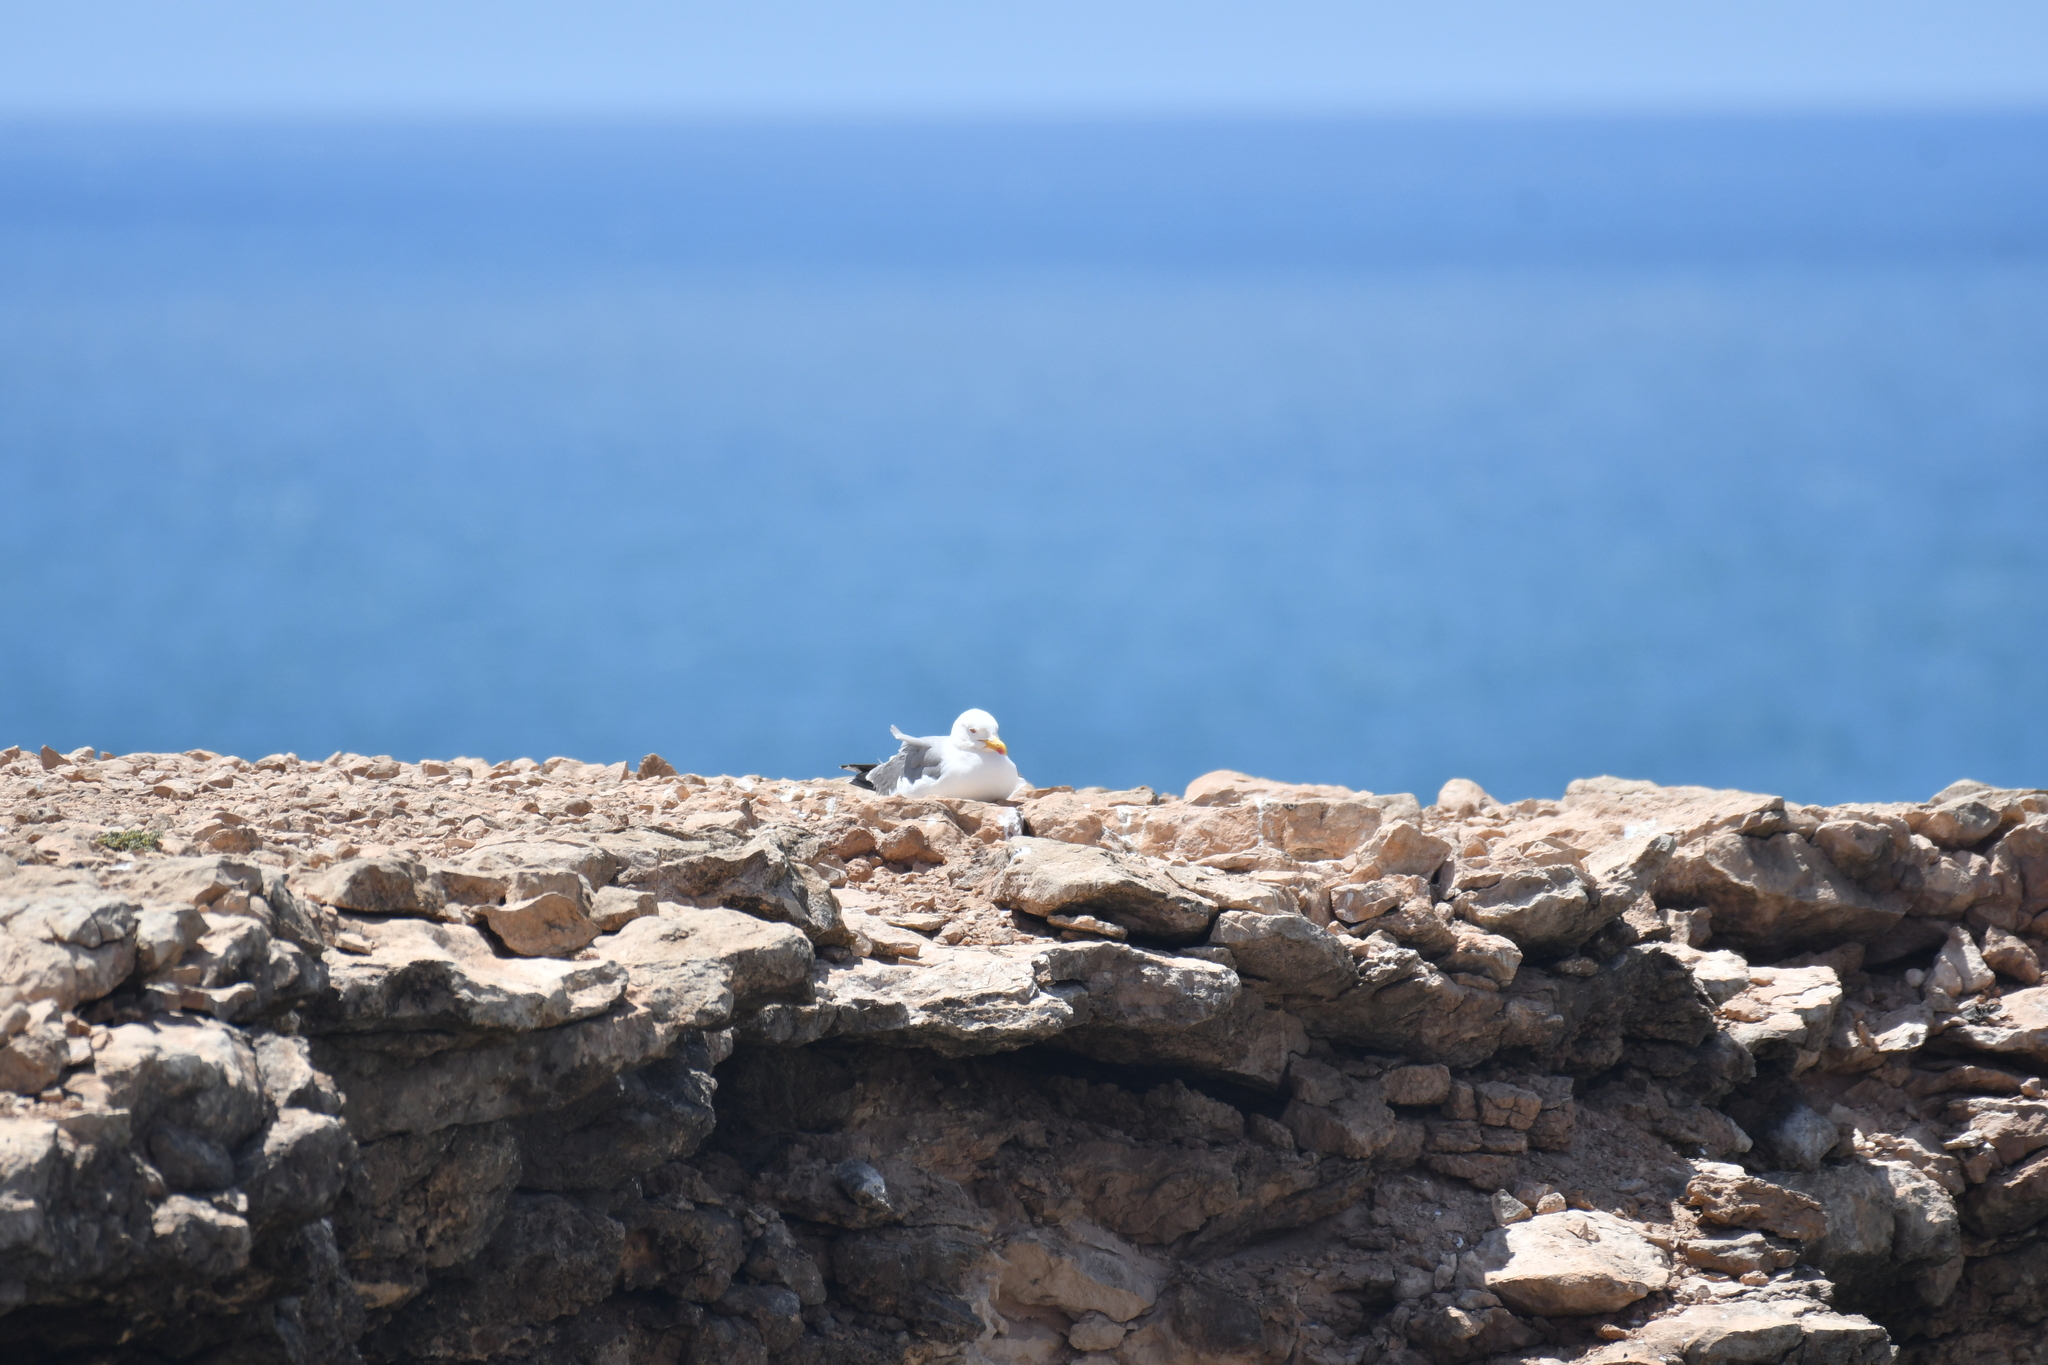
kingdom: Animalia
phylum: Chordata
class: Aves
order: Charadriiformes
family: Laridae
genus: Larus
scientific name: Larus michahellis
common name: Yellow-legged gull
